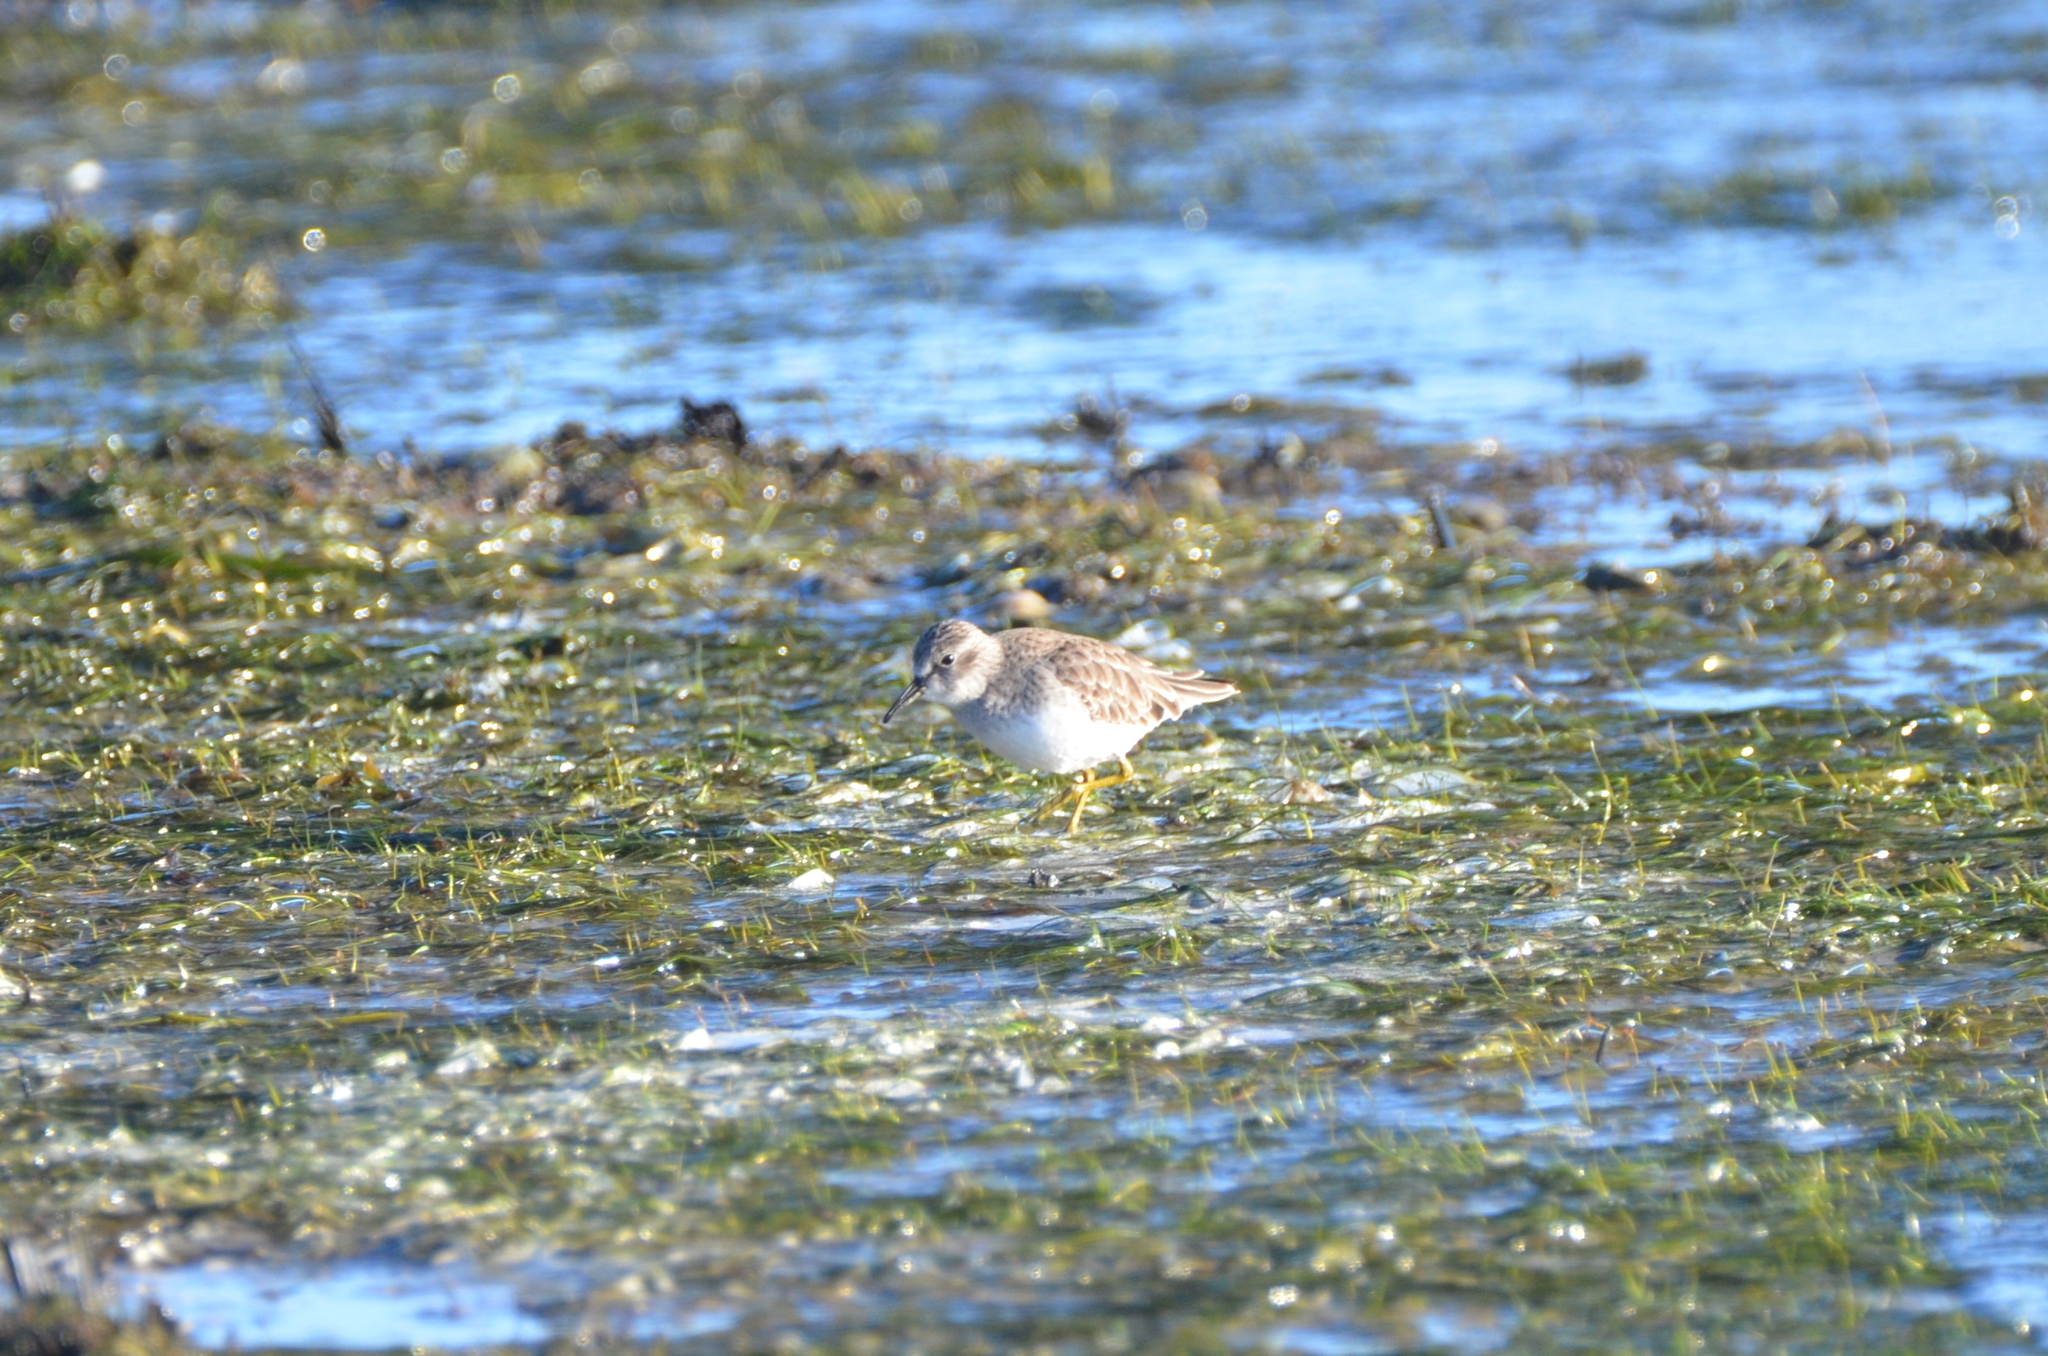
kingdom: Animalia
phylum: Chordata
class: Aves
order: Charadriiformes
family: Scolopacidae
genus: Calidris
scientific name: Calidris minutilla
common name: Least sandpiper
